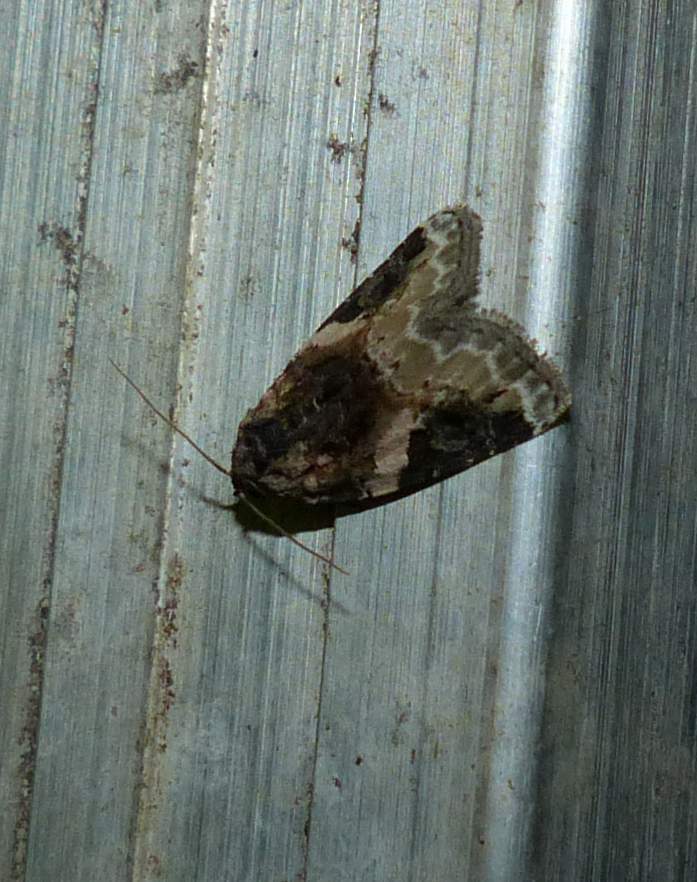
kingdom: Animalia
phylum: Arthropoda
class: Insecta
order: Lepidoptera
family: Noctuidae
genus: Pseudeustrotia
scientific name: Pseudeustrotia carneola
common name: Pink-barred lithacodia moth
